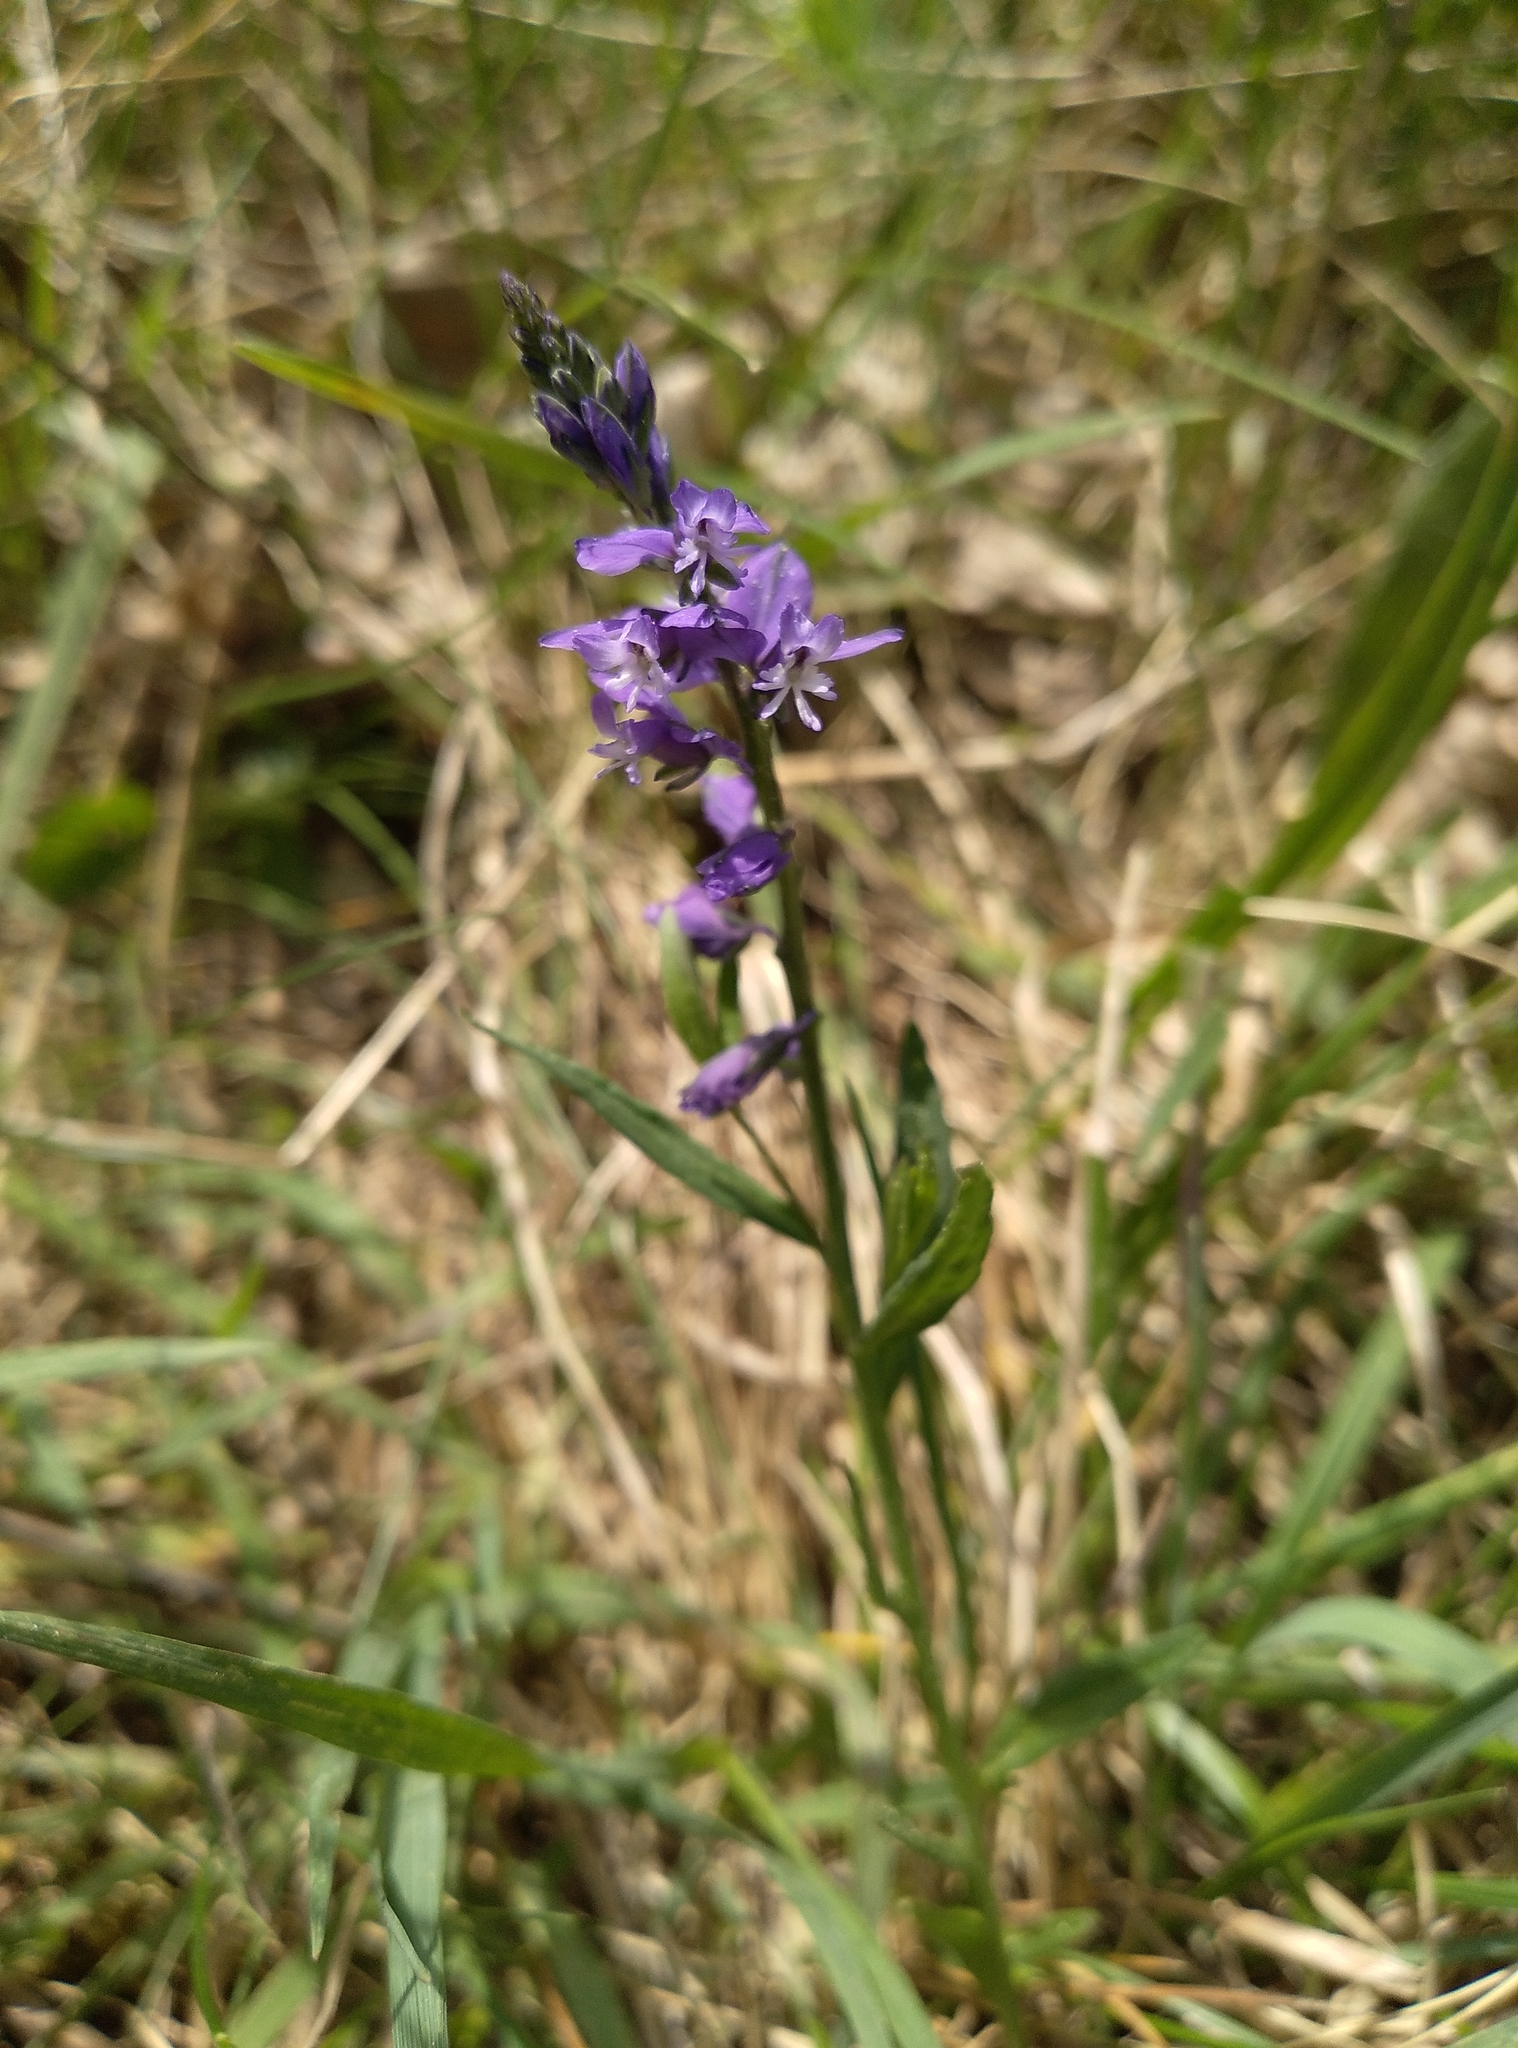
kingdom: Plantae
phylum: Tracheophyta
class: Magnoliopsida
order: Fabales
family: Polygalaceae
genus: Polygala
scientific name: Polygala comosa
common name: Tufted milkwort
